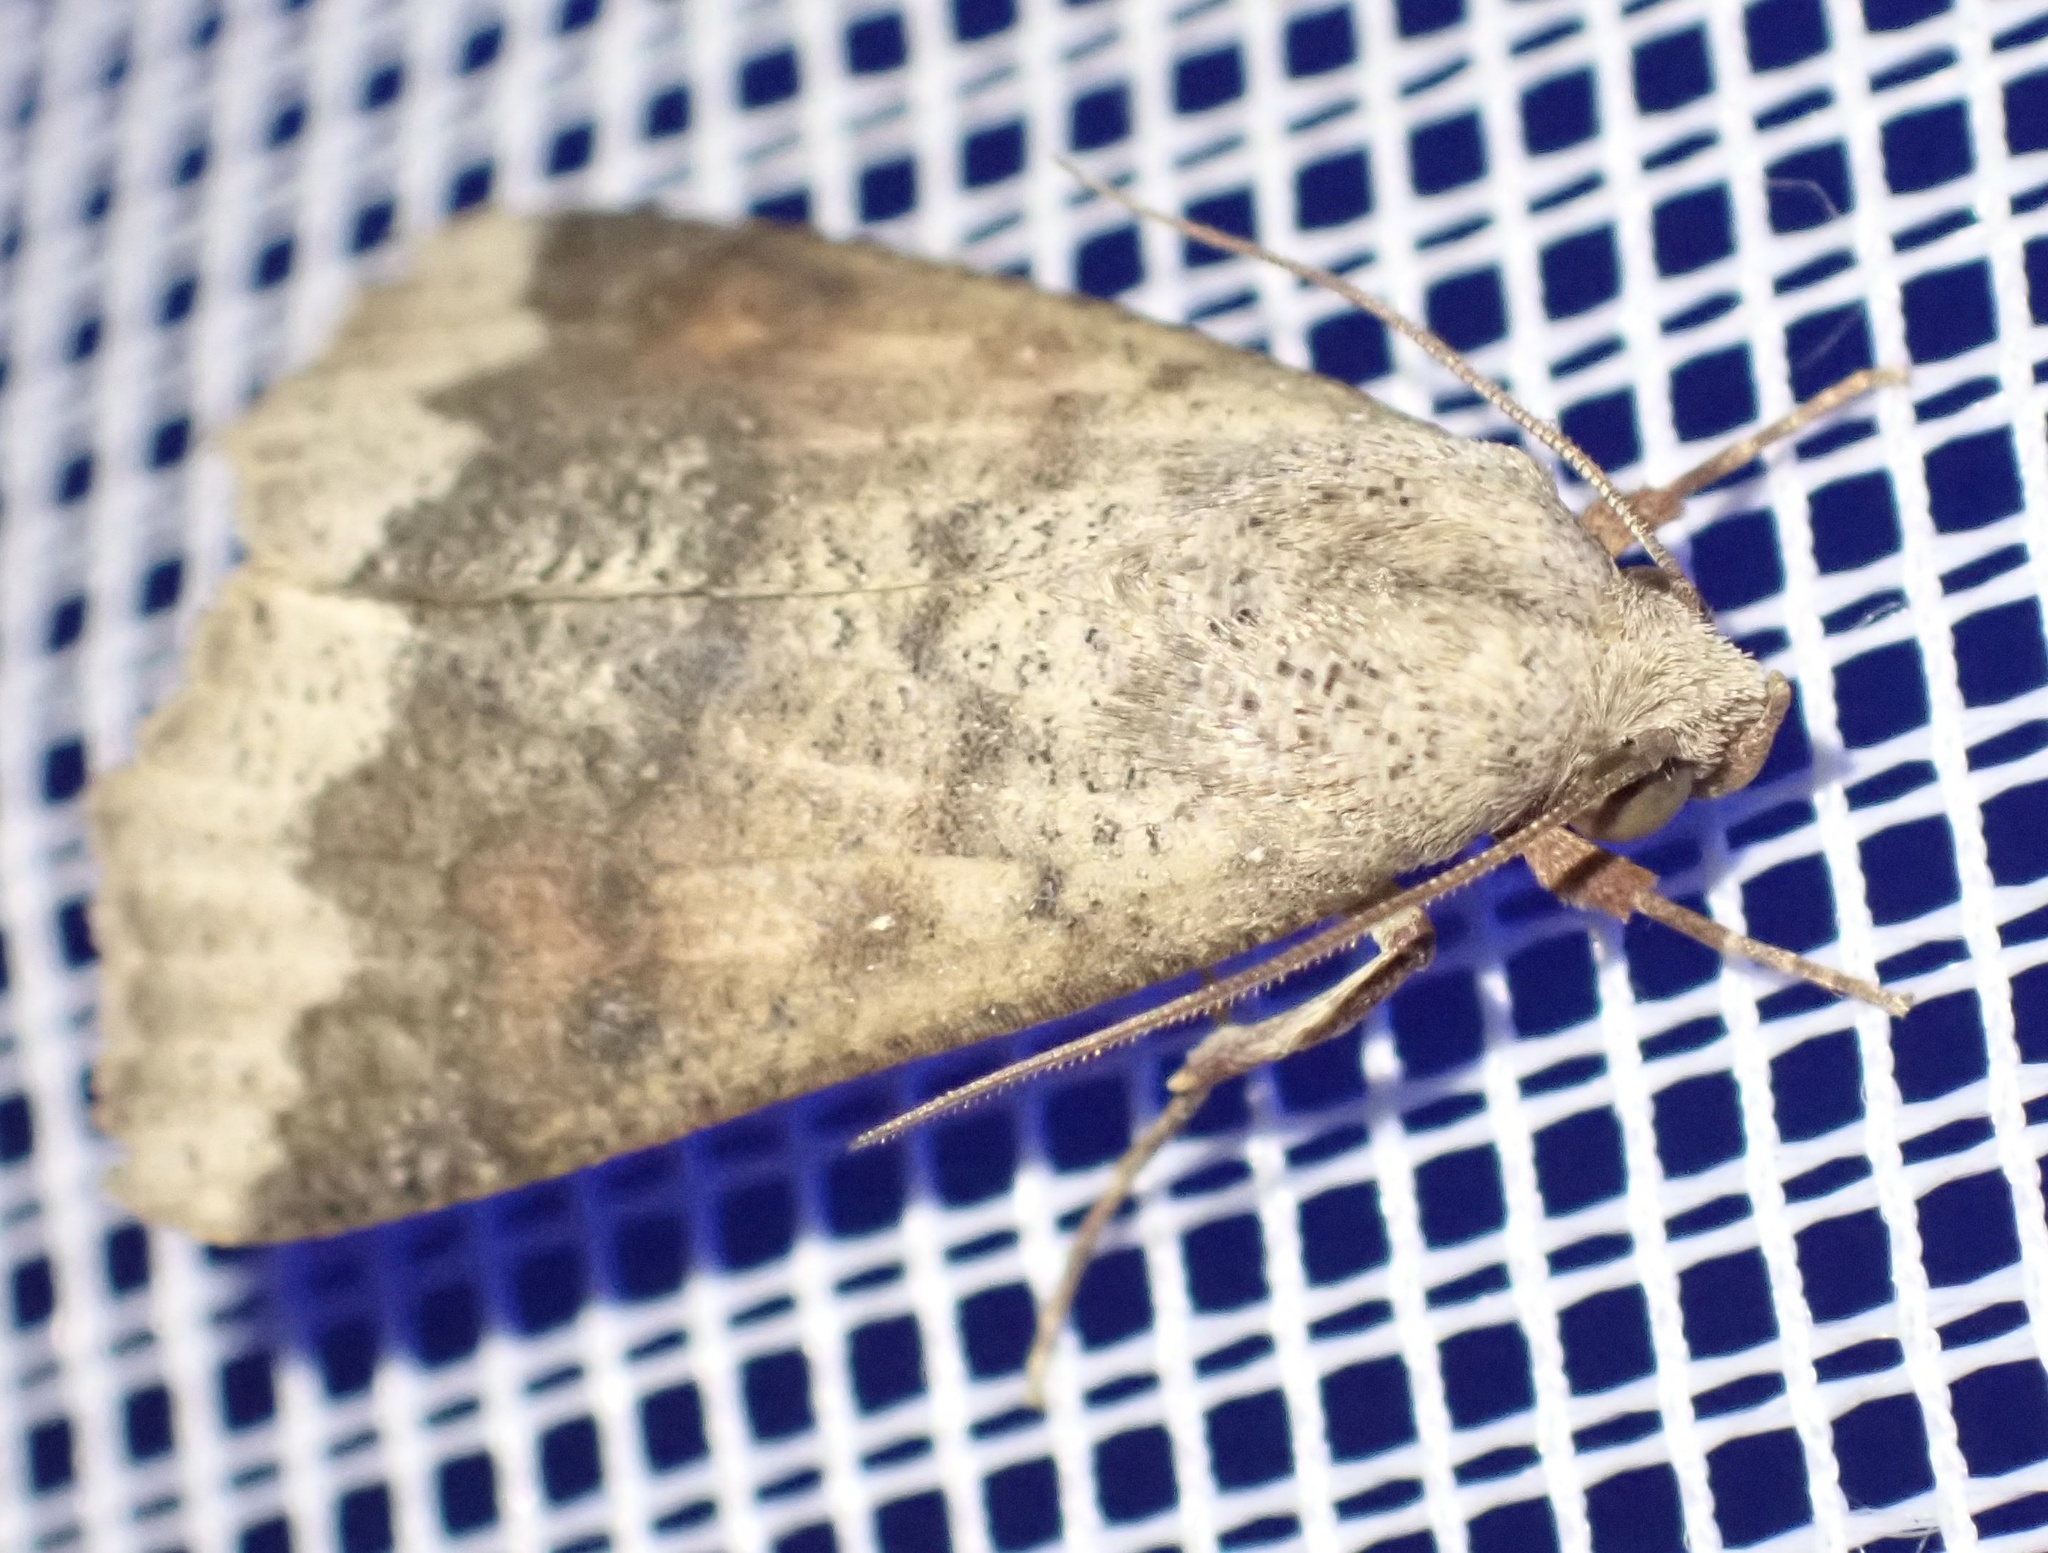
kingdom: Animalia
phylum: Arthropoda
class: Insecta
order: Lepidoptera
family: Erebidae
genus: Gonitis
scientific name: Gonitis involuta
